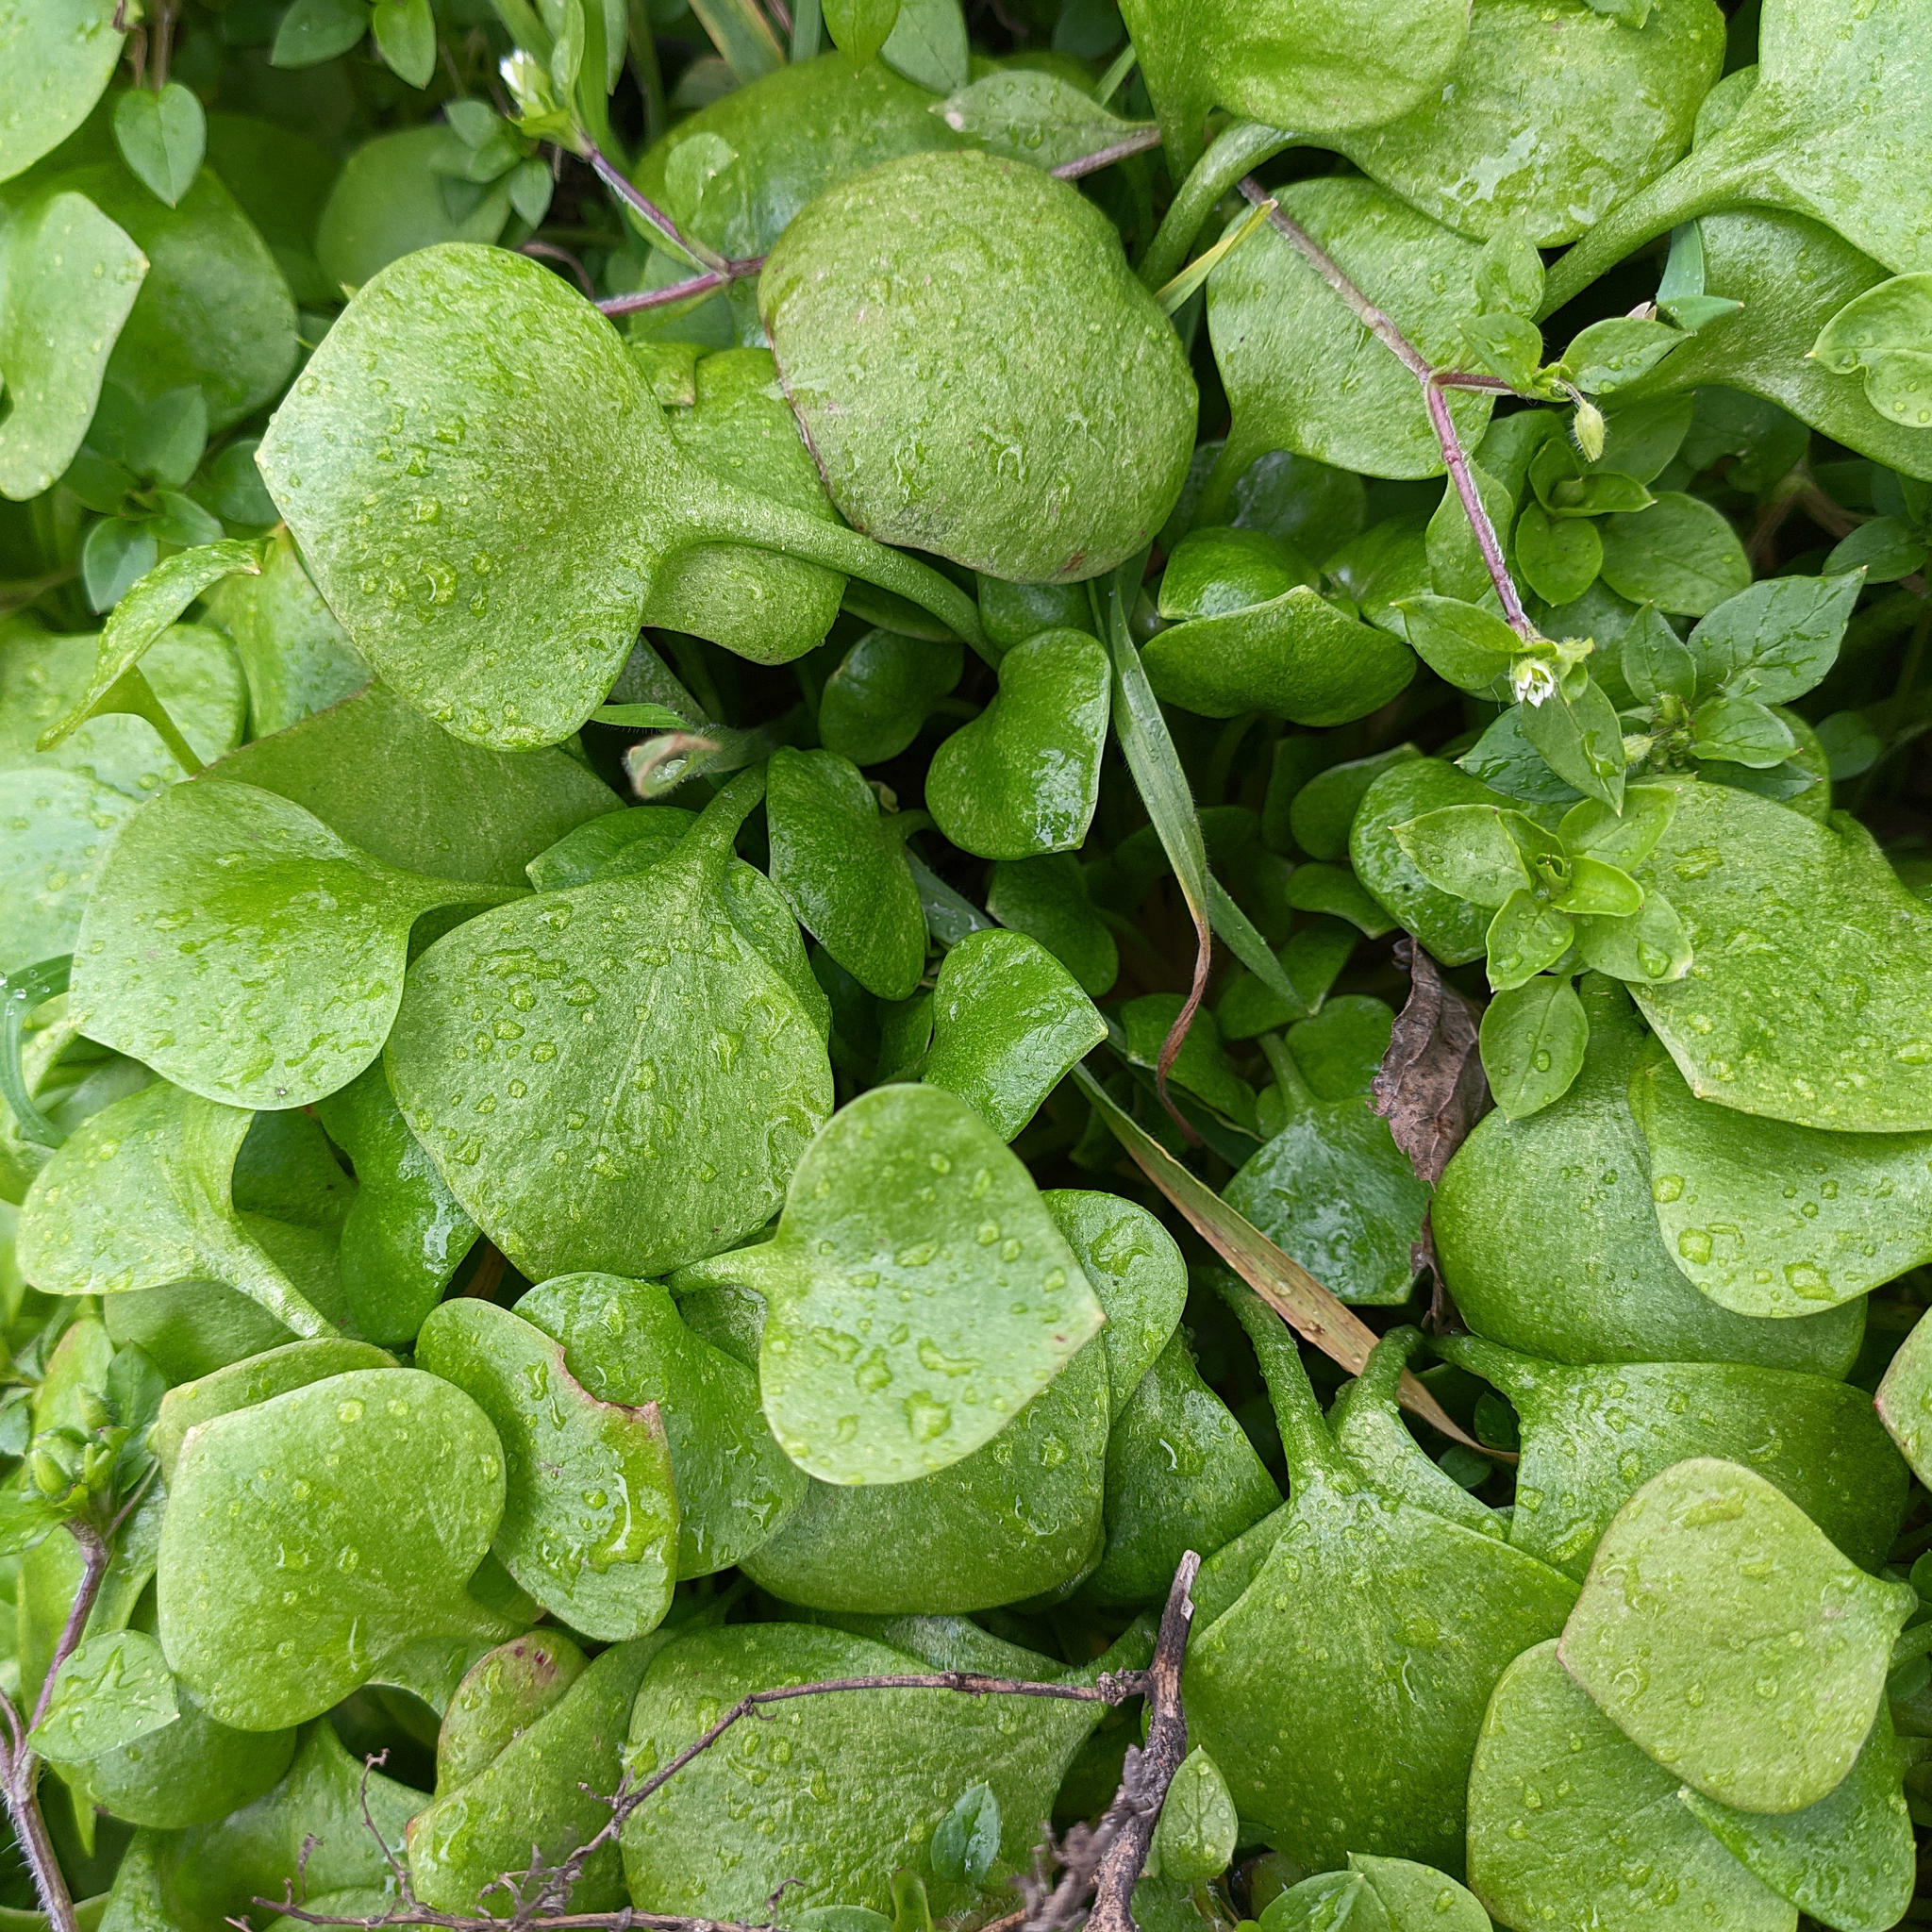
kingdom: Plantae
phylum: Tracheophyta
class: Magnoliopsida
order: Caryophyllales
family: Montiaceae
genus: Claytonia
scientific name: Claytonia perfoliata
